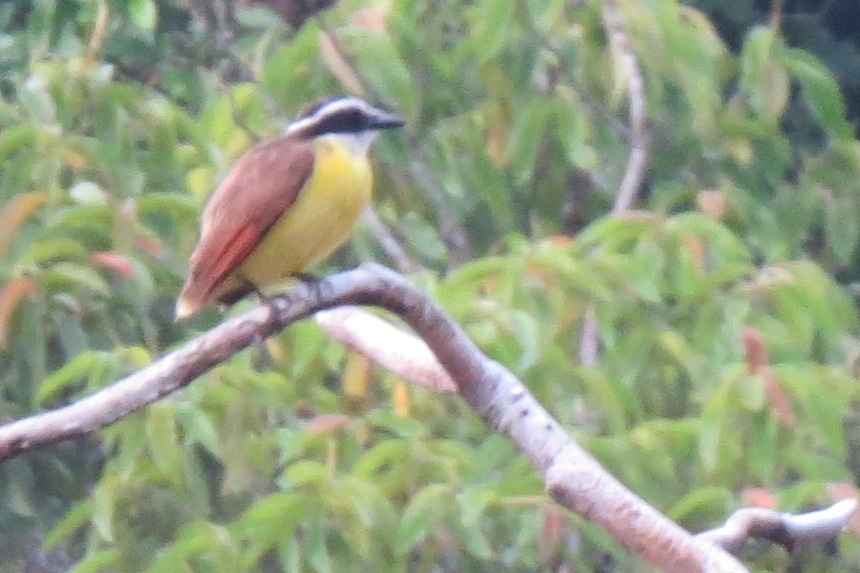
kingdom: Animalia
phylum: Chordata
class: Aves
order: Passeriformes
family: Tyrannidae
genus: Pitangus
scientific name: Pitangus sulphuratus
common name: Great kiskadee
